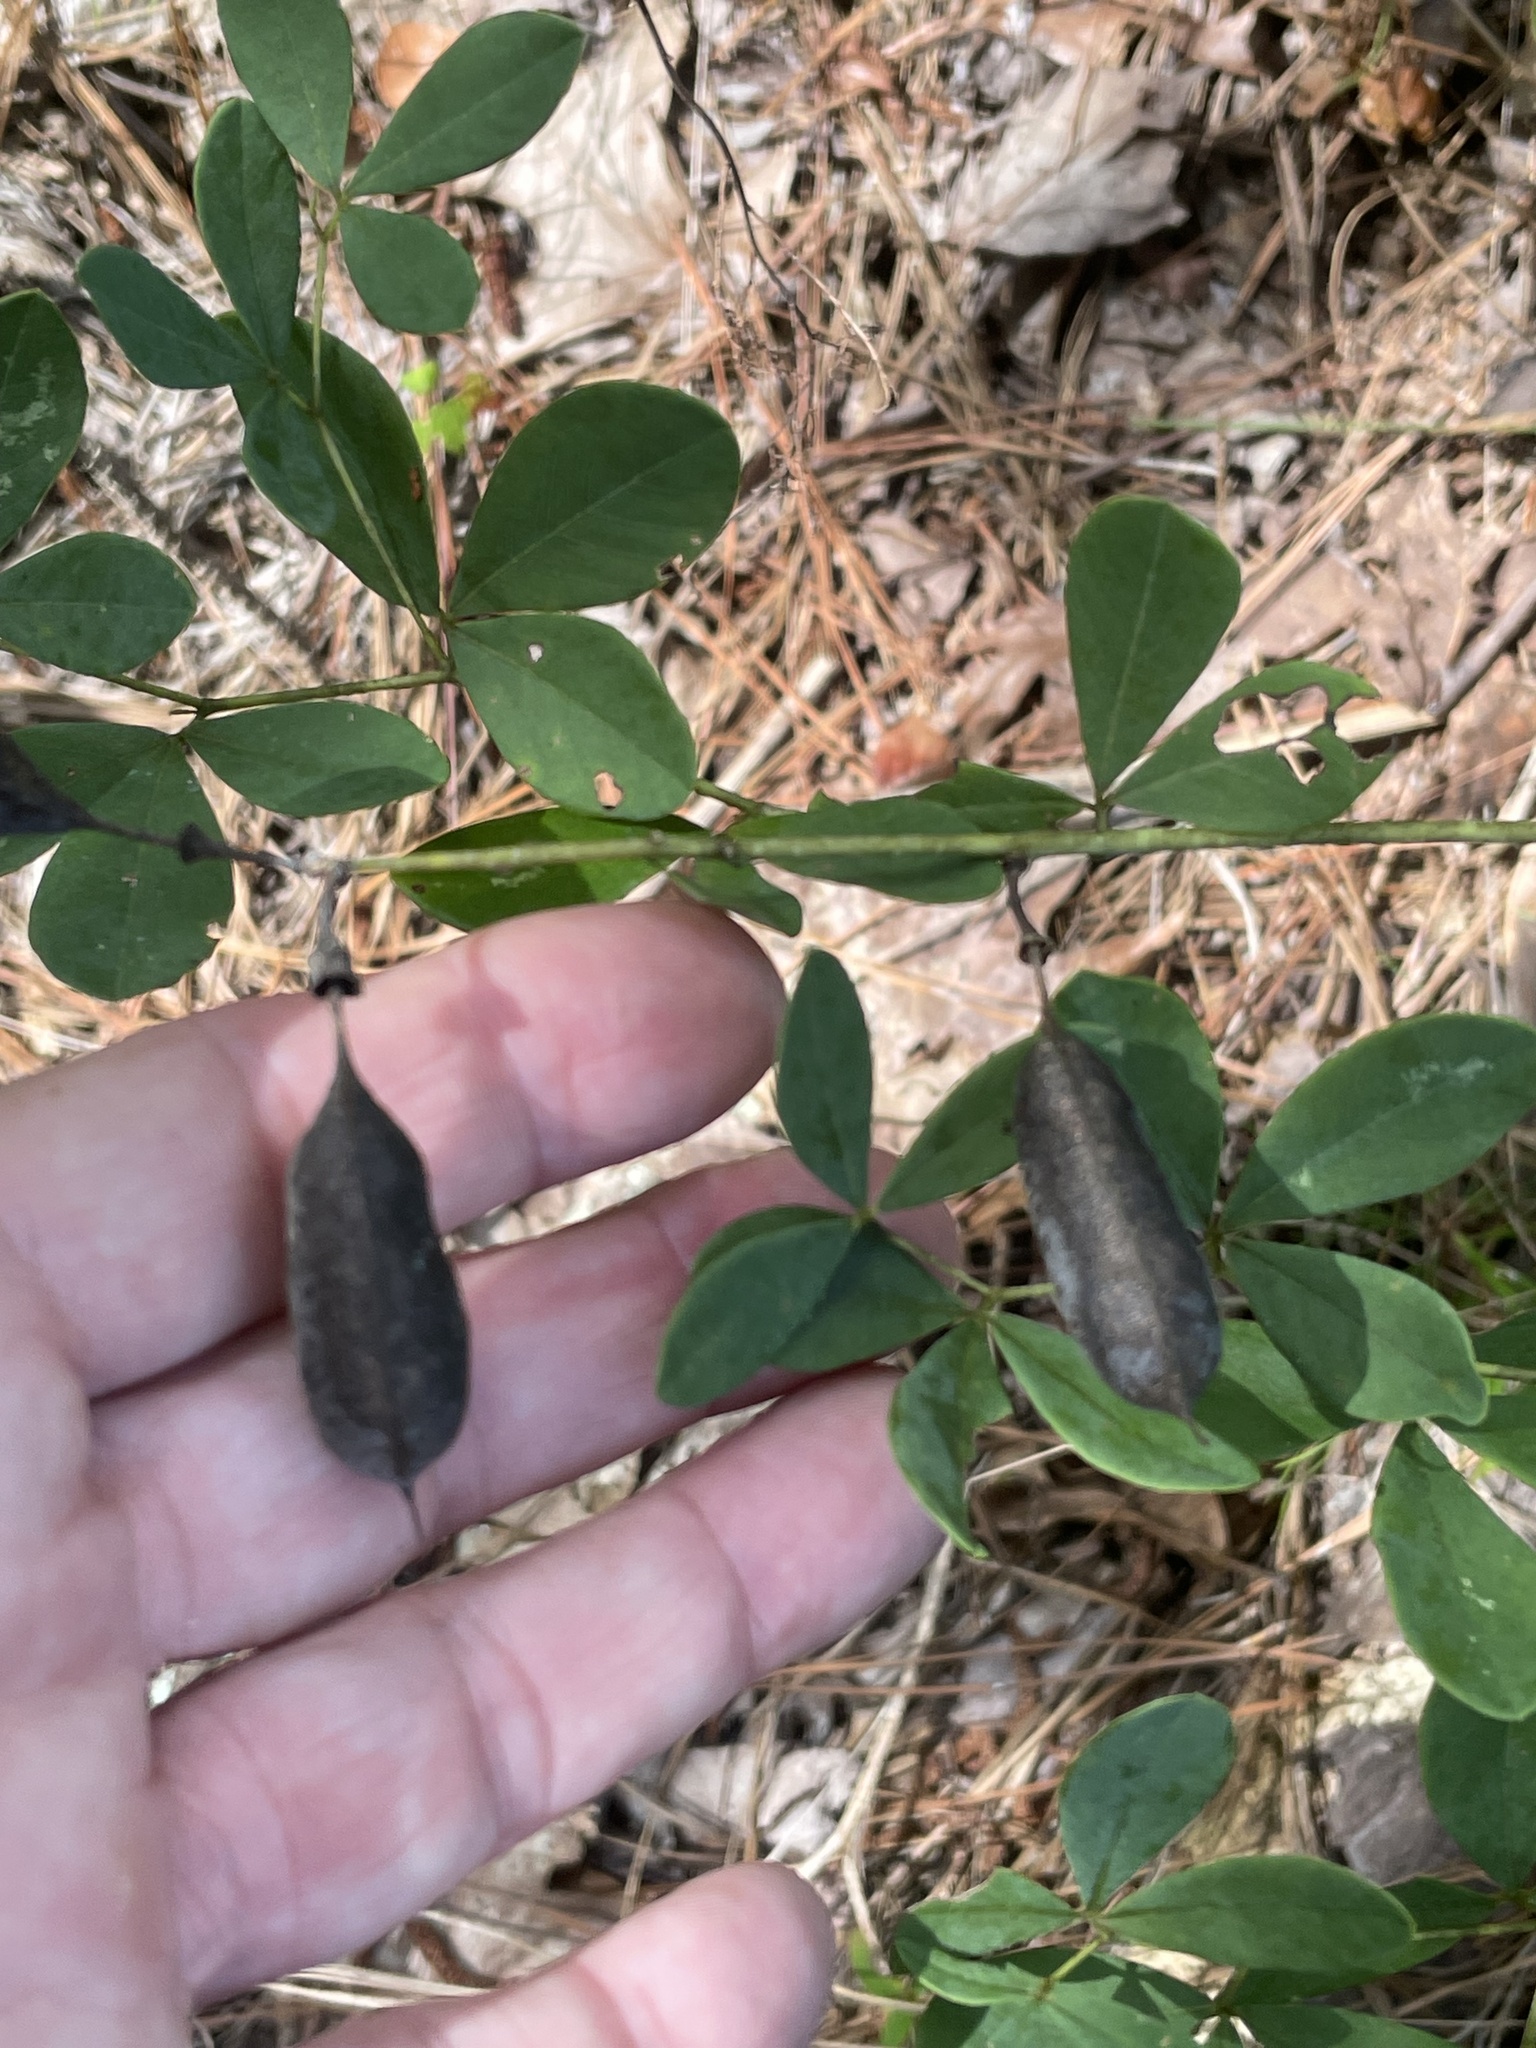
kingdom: Plantae
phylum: Tracheophyta
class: Magnoliopsida
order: Fabales
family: Fabaceae
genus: Baptisia
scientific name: Baptisia alba
